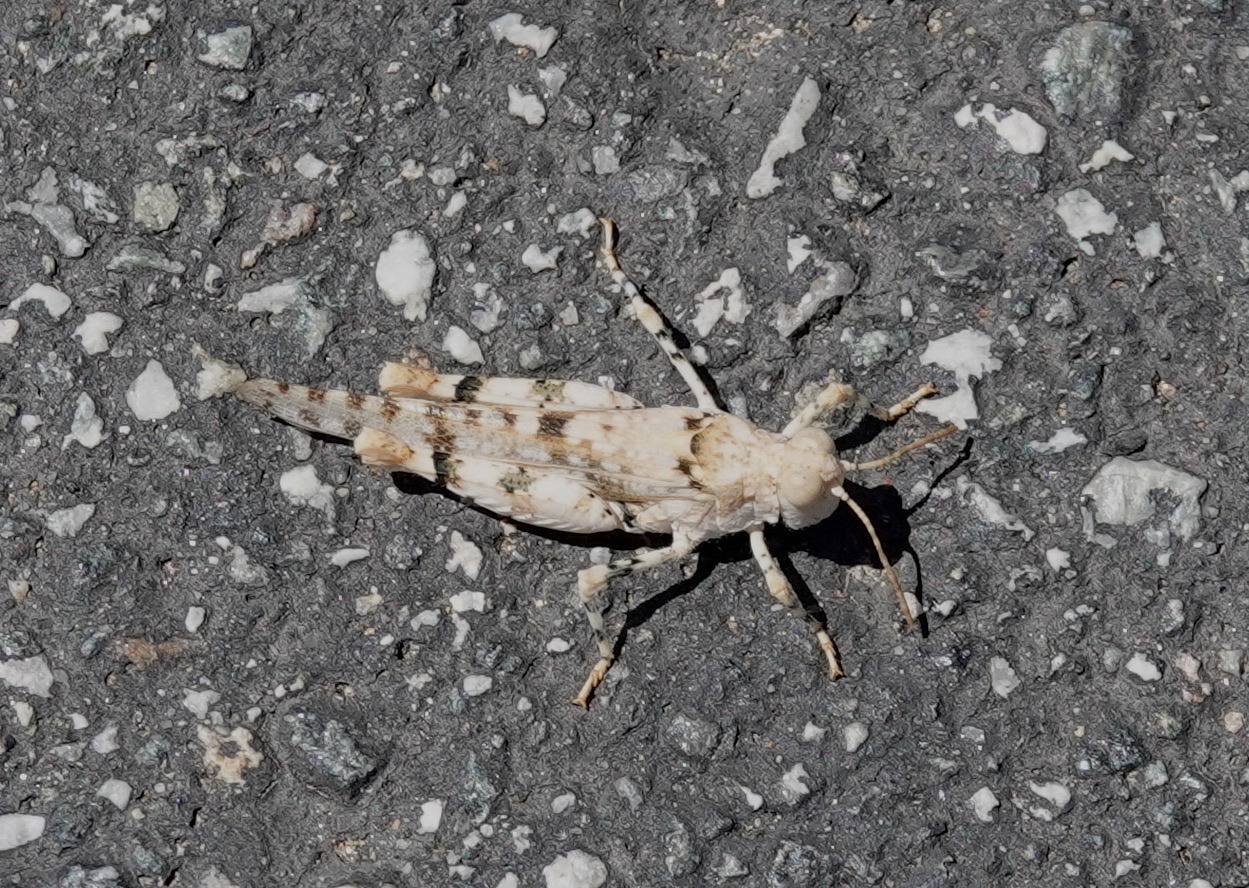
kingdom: Animalia
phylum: Arthropoda
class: Insecta
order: Orthoptera
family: Acrididae
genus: Cibolacris
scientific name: Cibolacris parviceps
